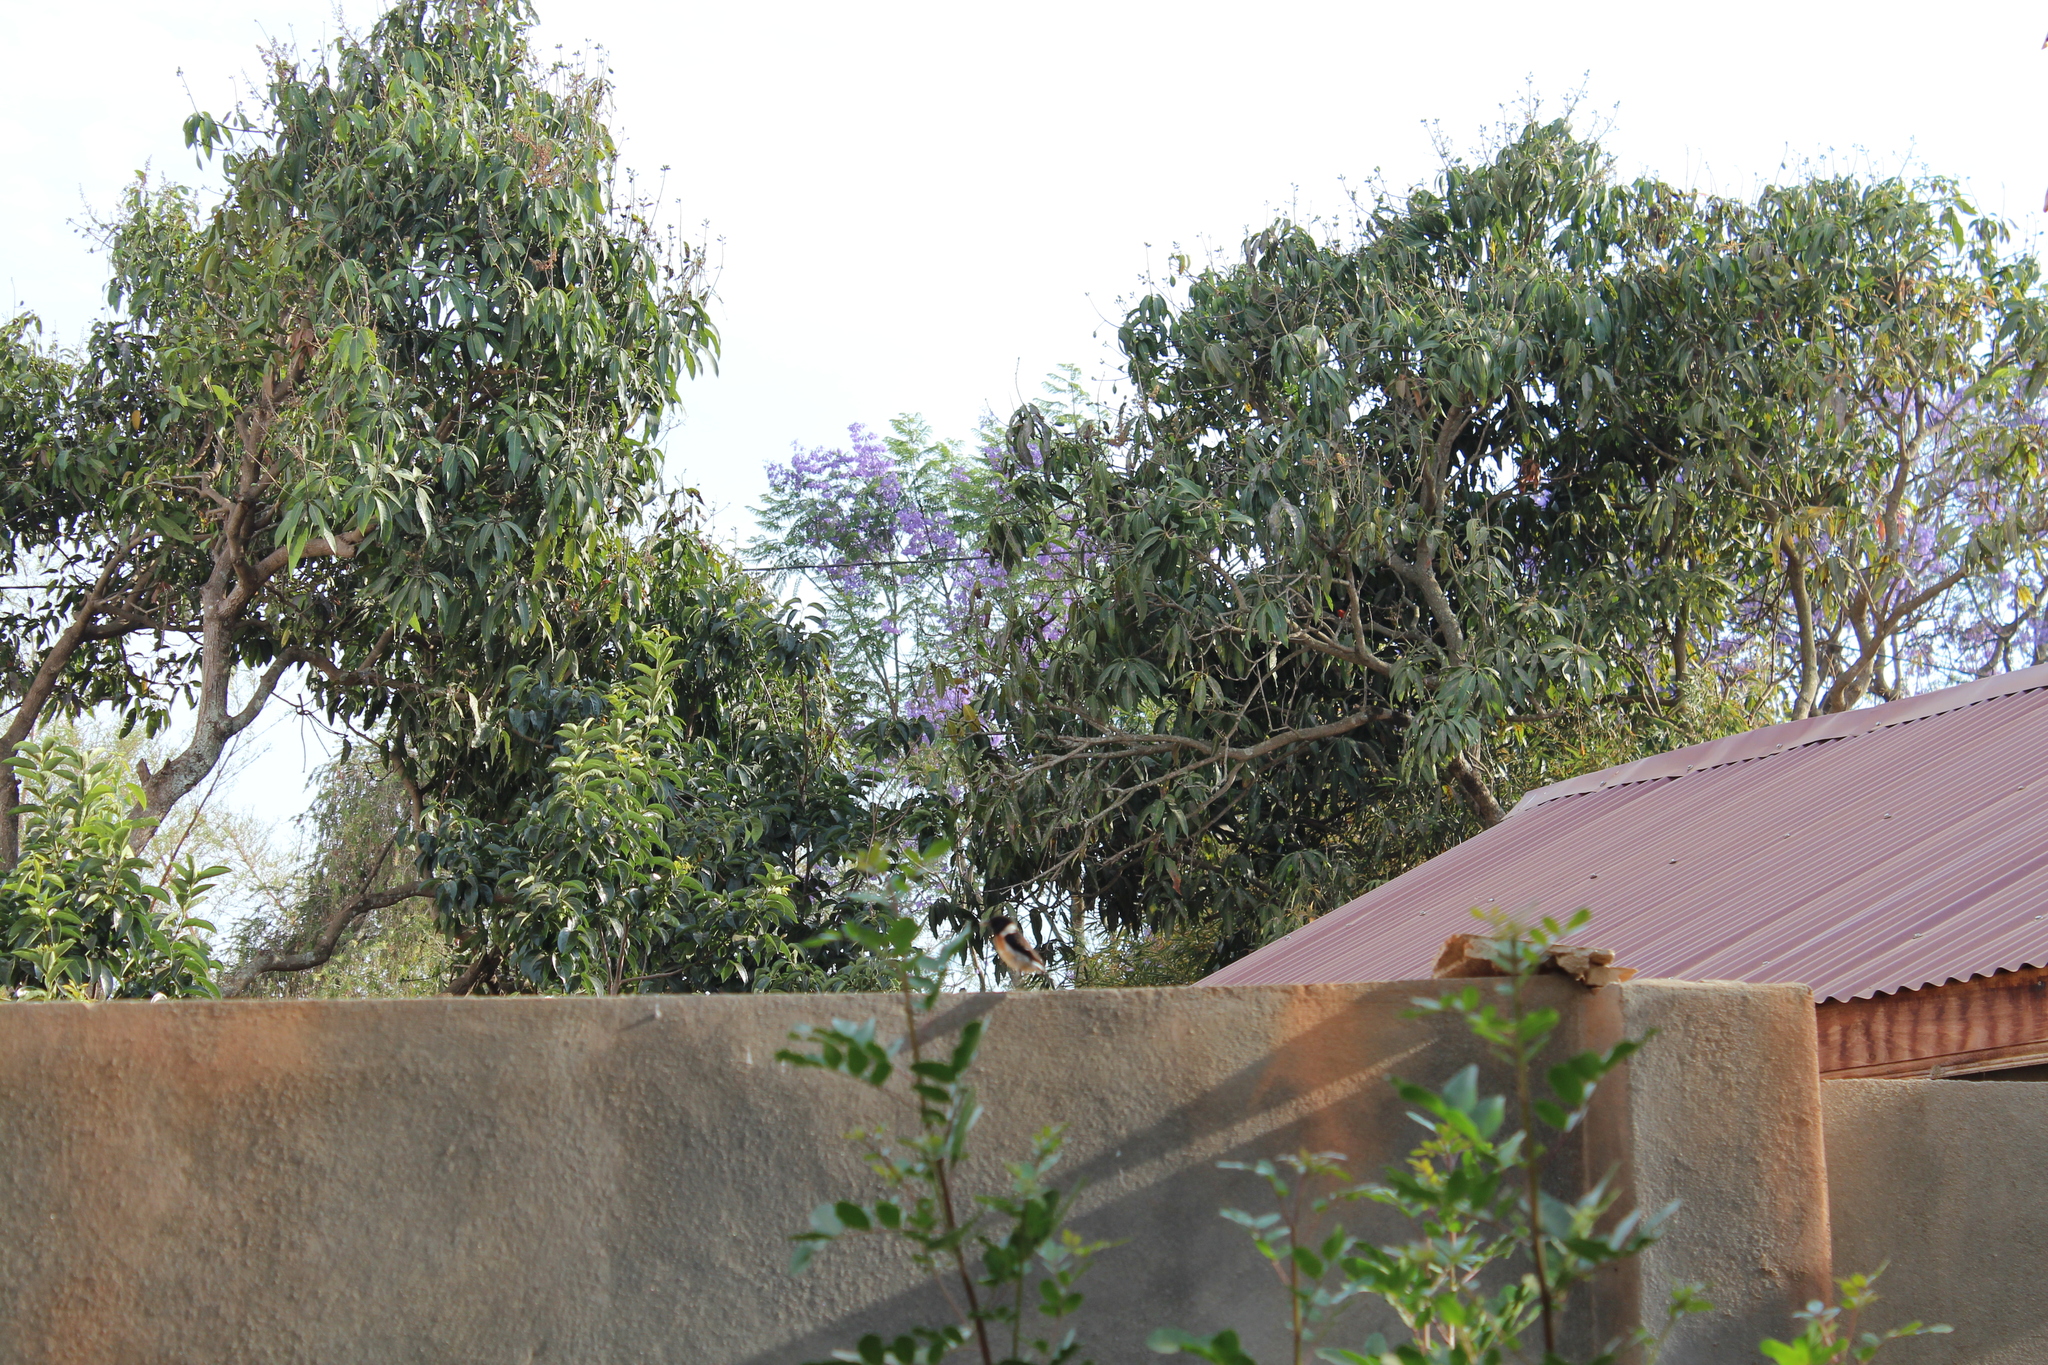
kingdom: Animalia
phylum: Chordata
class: Aves
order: Passeriformes
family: Muscicapidae
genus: Saxicola
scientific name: Saxicola torquatus
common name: African stonechat
